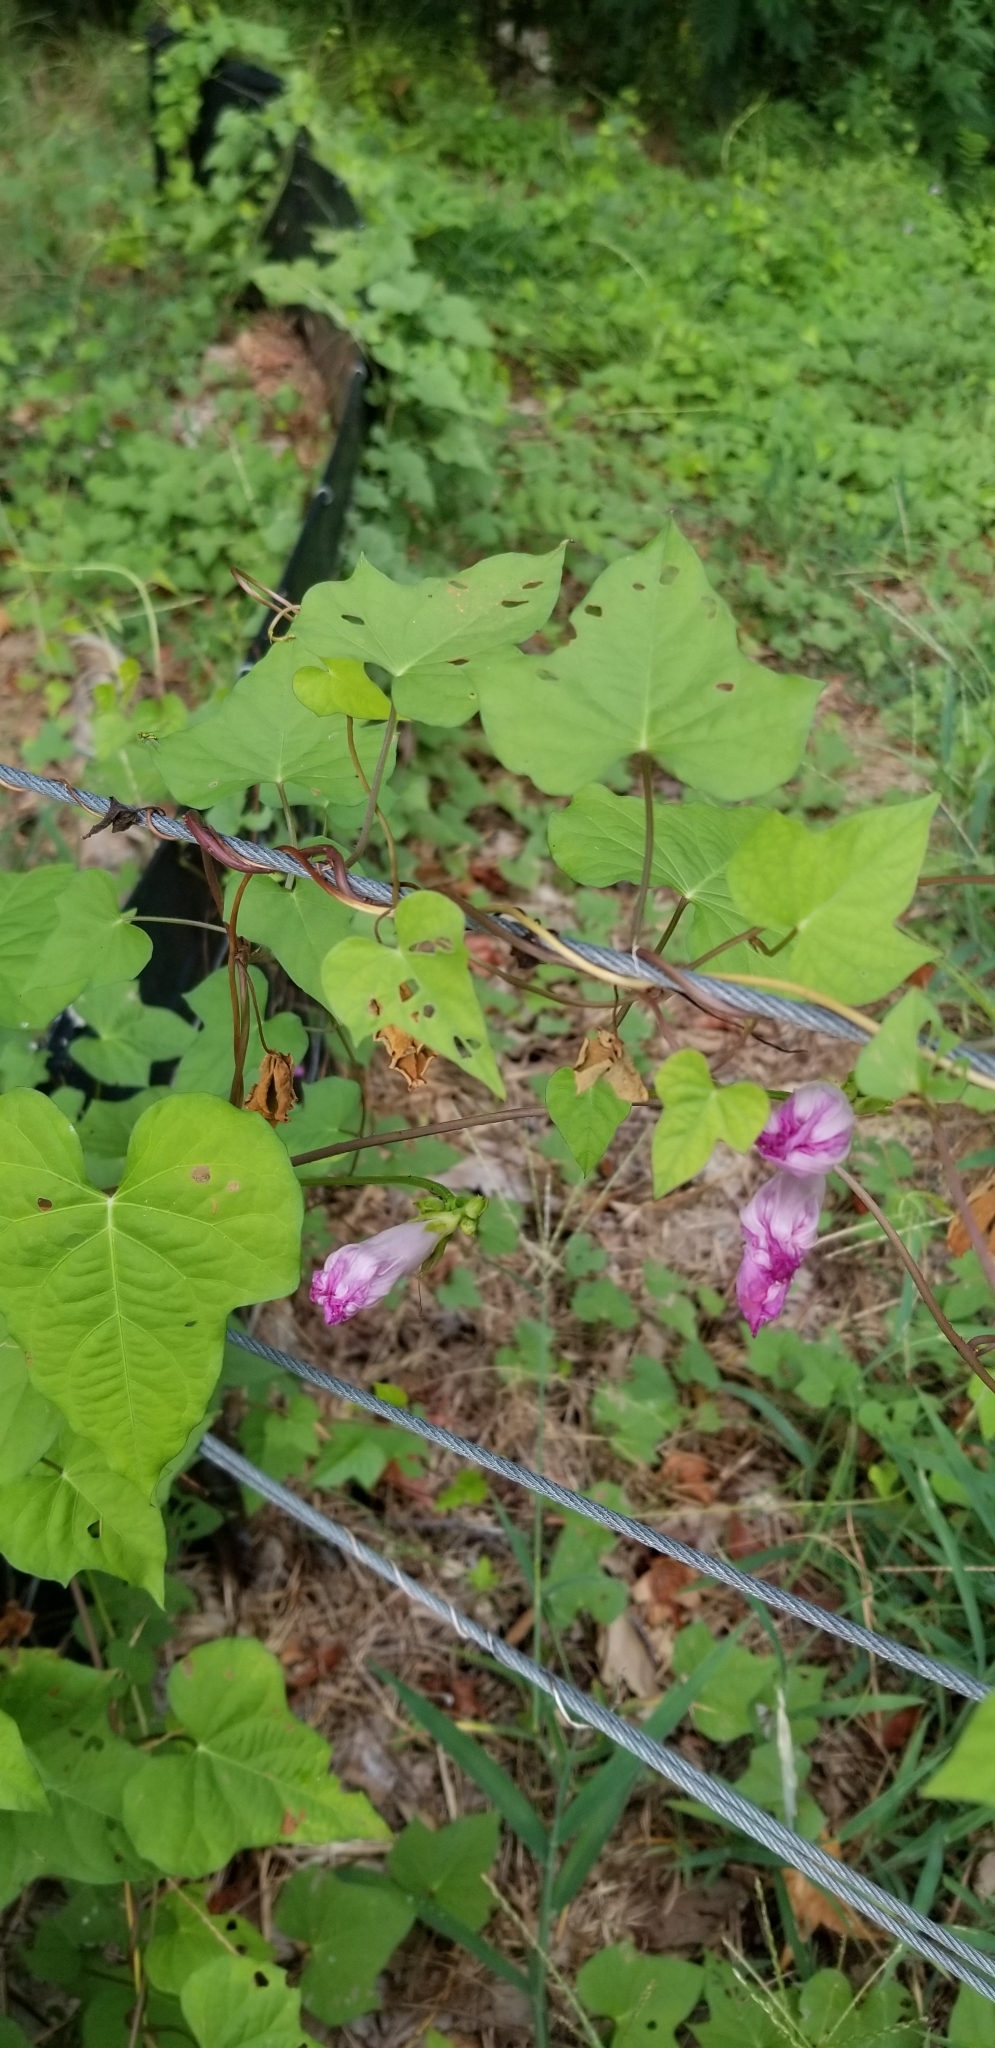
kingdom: Plantae
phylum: Tracheophyta
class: Magnoliopsida
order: Solanales
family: Convolvulaceae
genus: Ipomoea
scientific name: Ipomoea cordatotriloba
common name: Cotton morning glory
